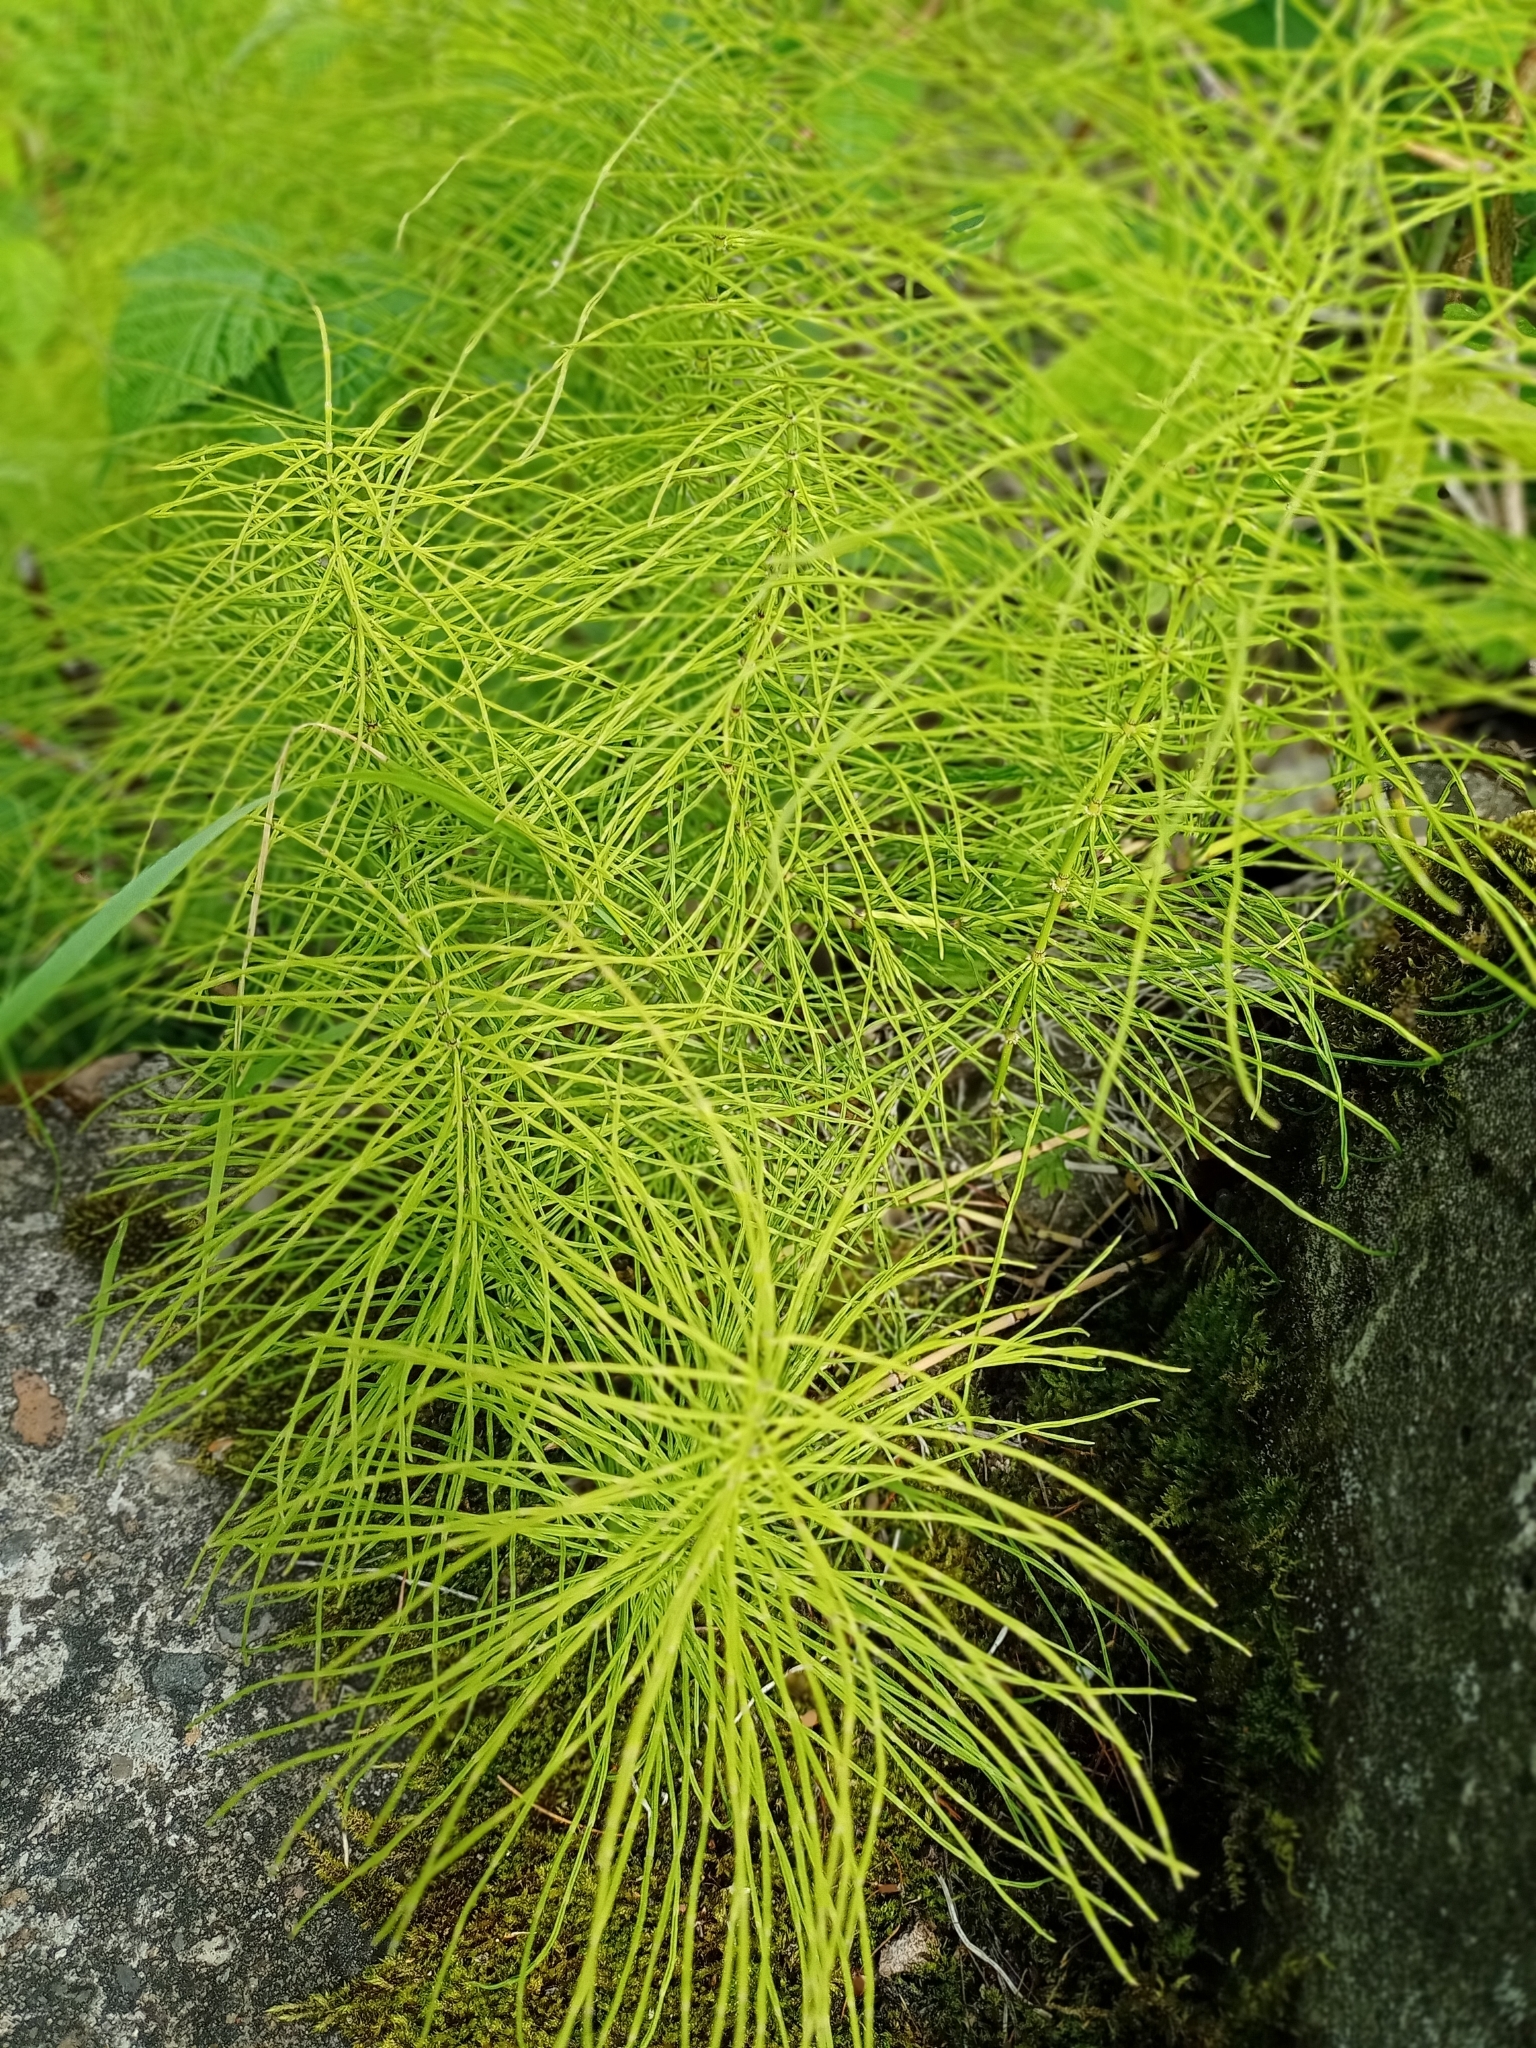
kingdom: Plantae
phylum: Tracheophyta
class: Polypodiopsida
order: Equisetales
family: Equisetaceae
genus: Equisetum
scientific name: Equisetum pratense
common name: Meadow horsetail
